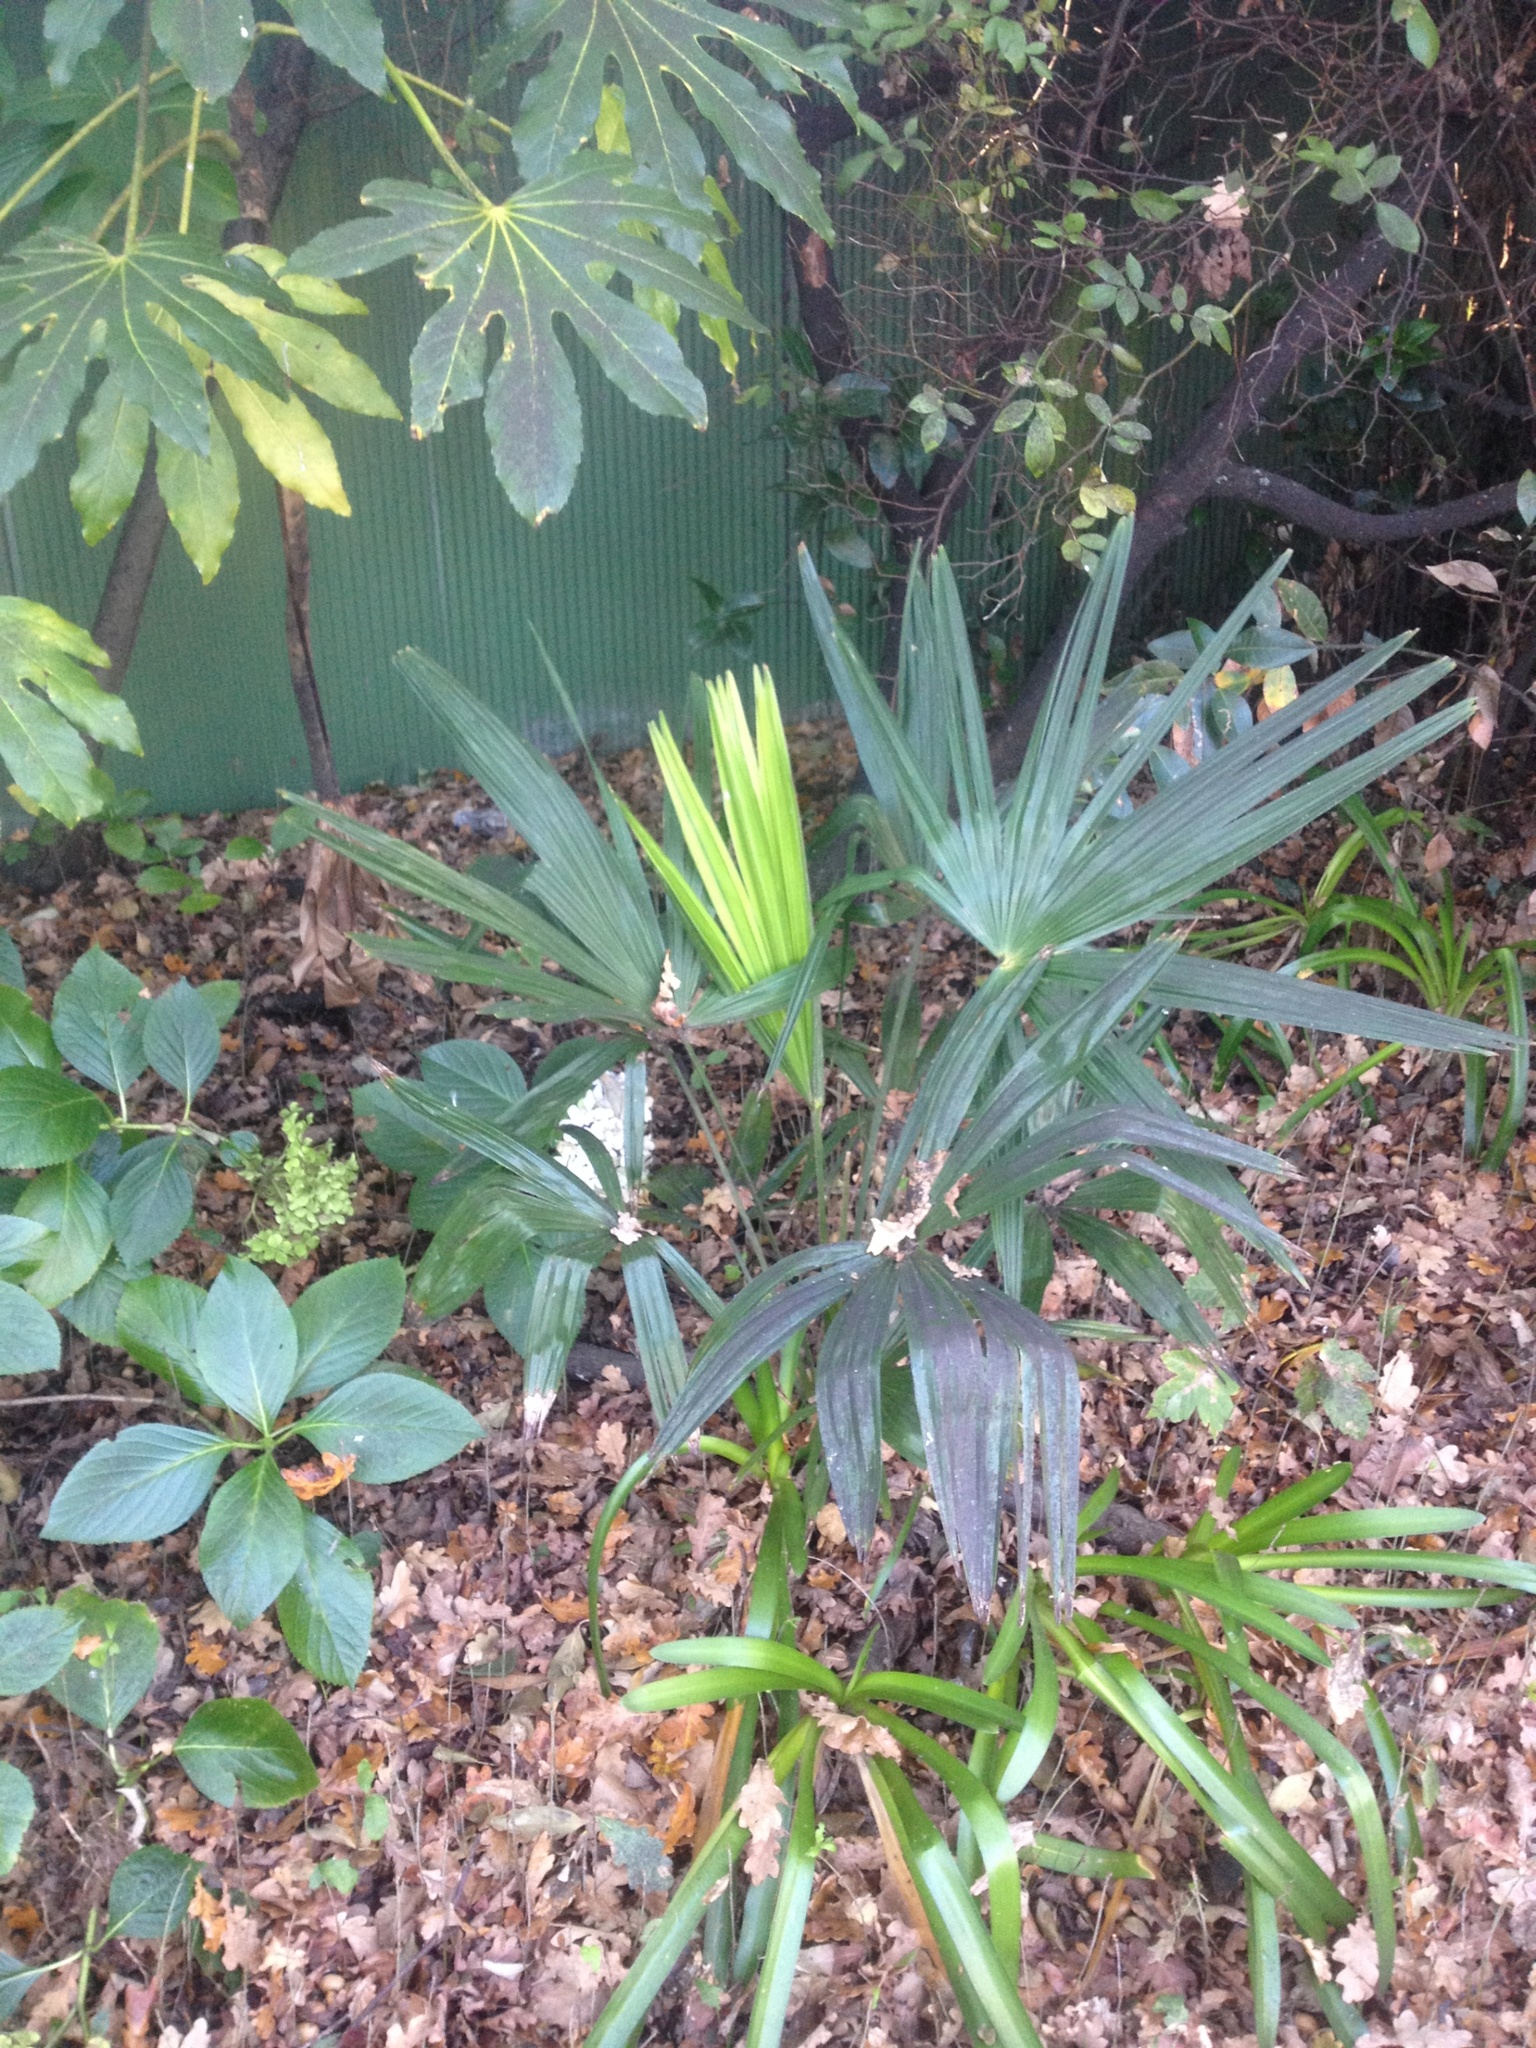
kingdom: Plantae
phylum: Tracheophyta
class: Liliopsida
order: Arecales
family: Arecaceae
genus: Trachycarpus
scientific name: Trachycarpus fortunei
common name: Chusan palm
